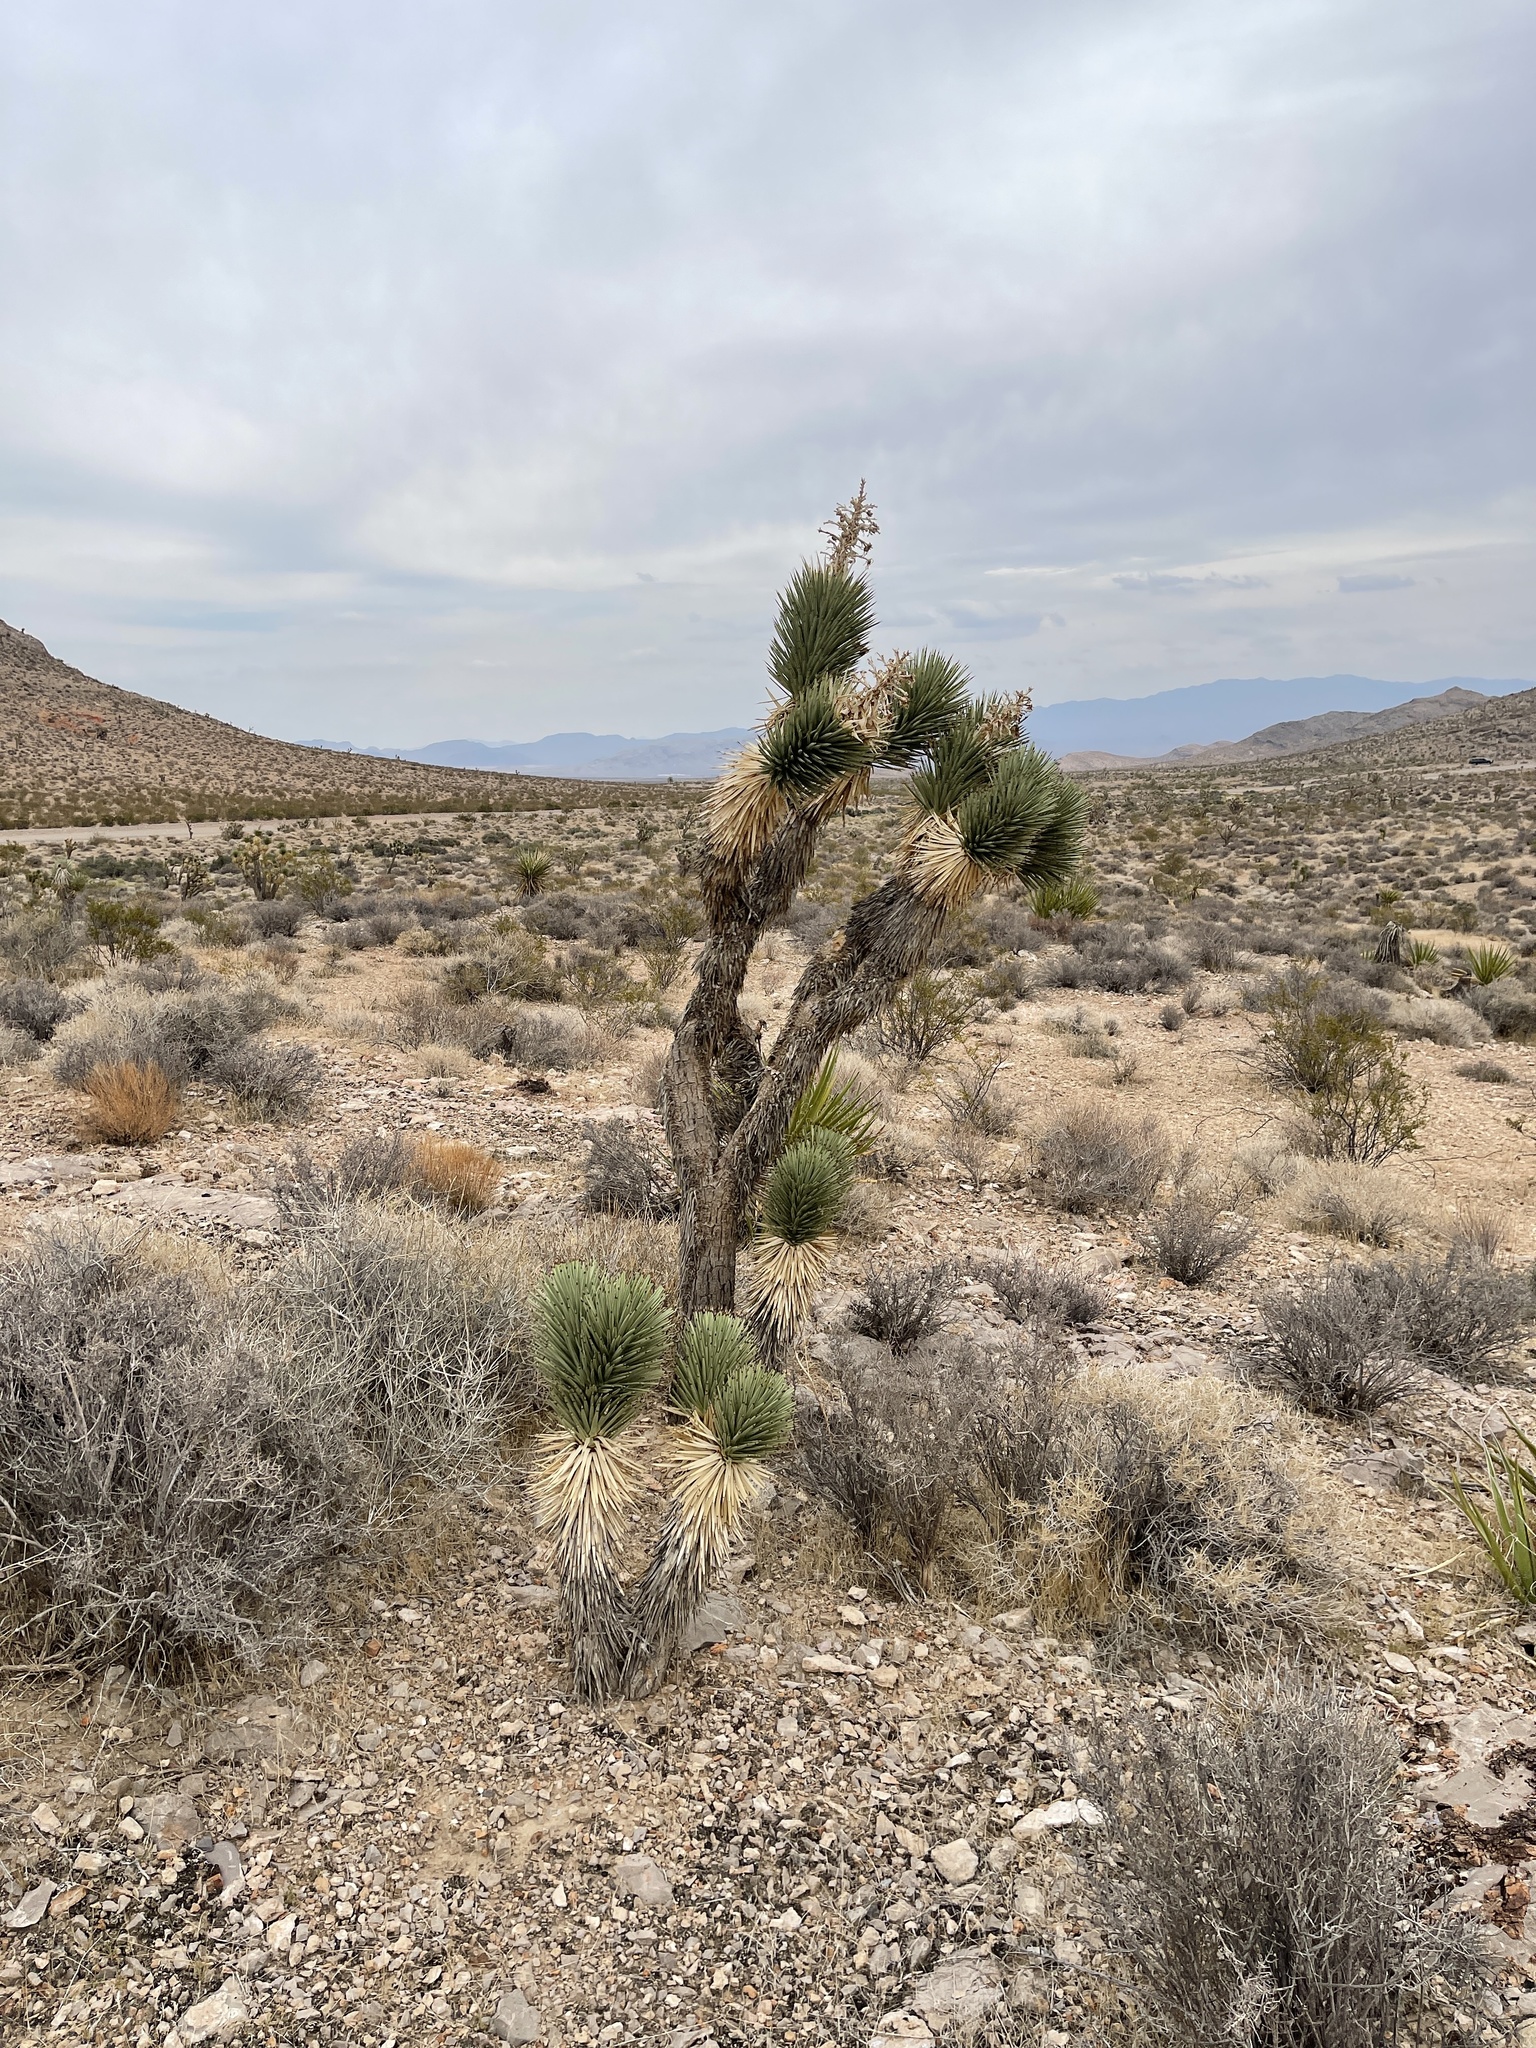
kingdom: Plantae
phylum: Tracheophyta
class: Liliopsida
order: Asparagales
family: Asparagaceae
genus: Yucca
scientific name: Yucca brevifolia
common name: Joshua tree
